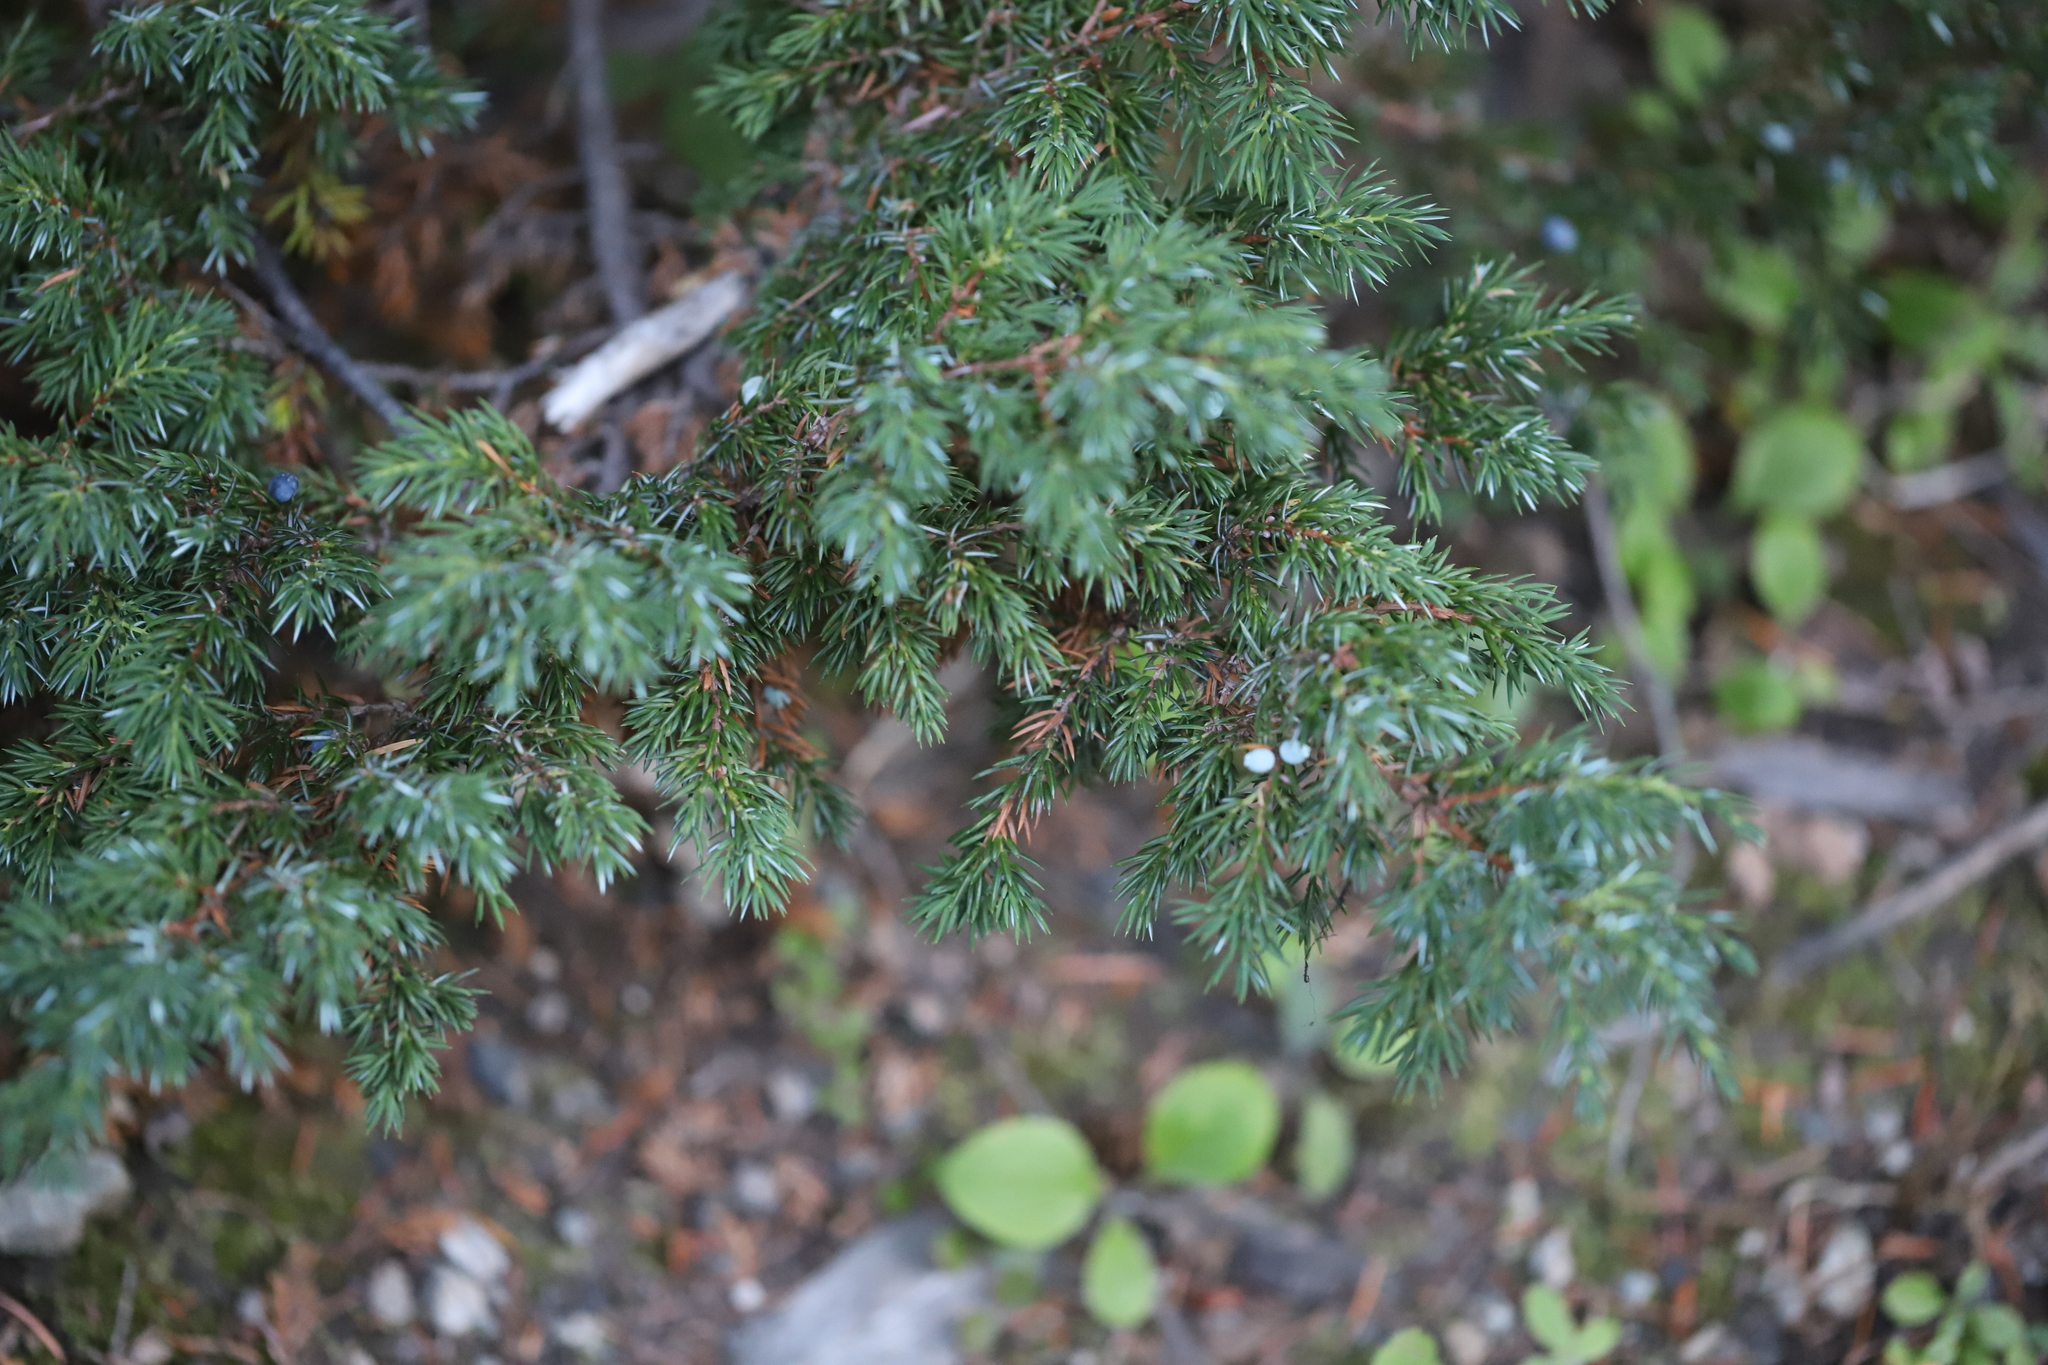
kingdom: Plantae
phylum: Tracheophyta
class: Pinopsida
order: Pinales
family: Cupressaceae
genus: Juniperus
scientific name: Juniperus communis
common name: Common juniper
